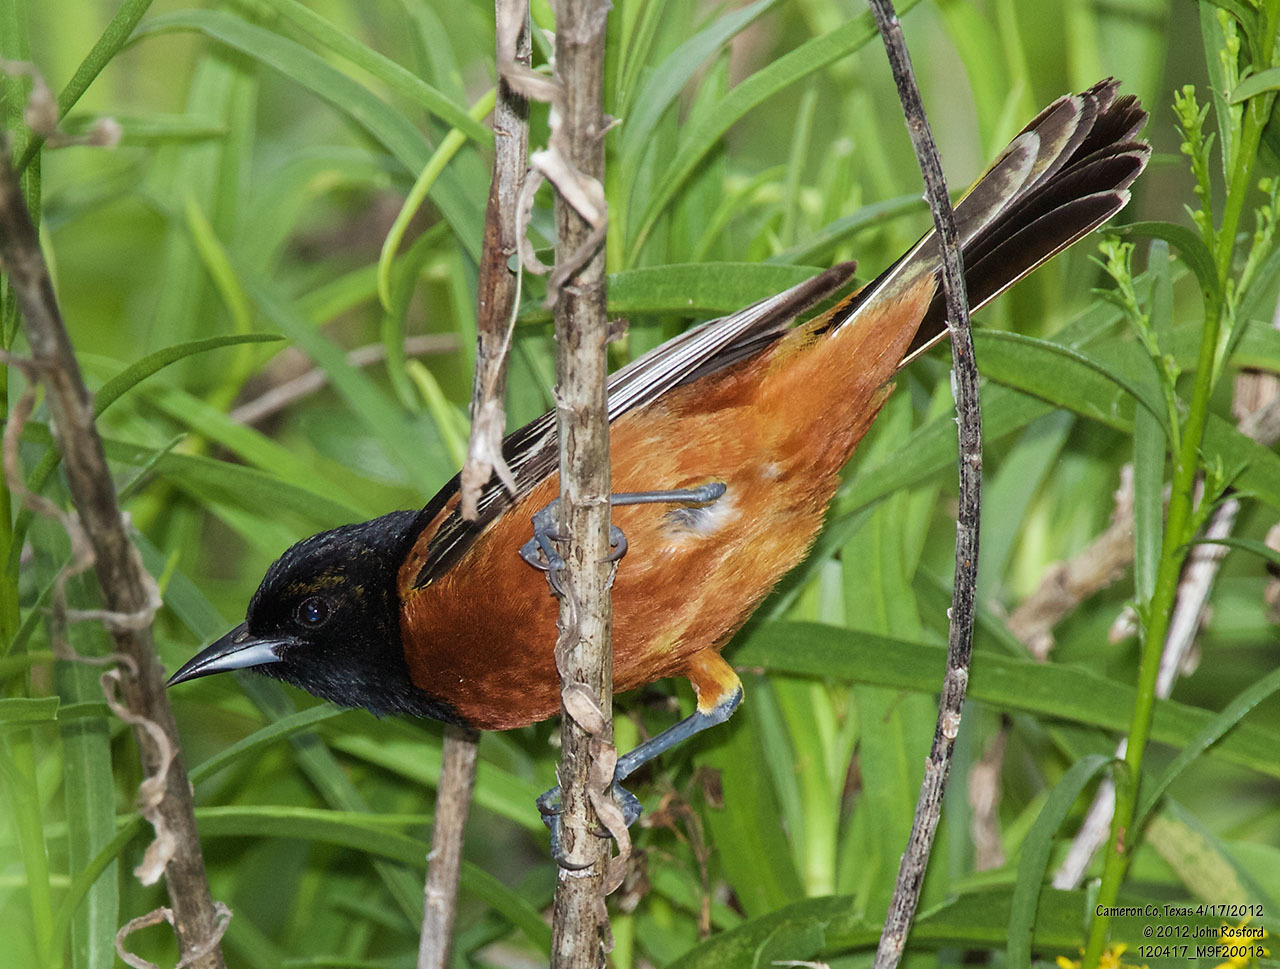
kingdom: Animalia
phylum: Chordata
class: Aves
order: Passeriformes
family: Icteridae
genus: Icterus
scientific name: Icterus spurius
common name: Orchard oriole
